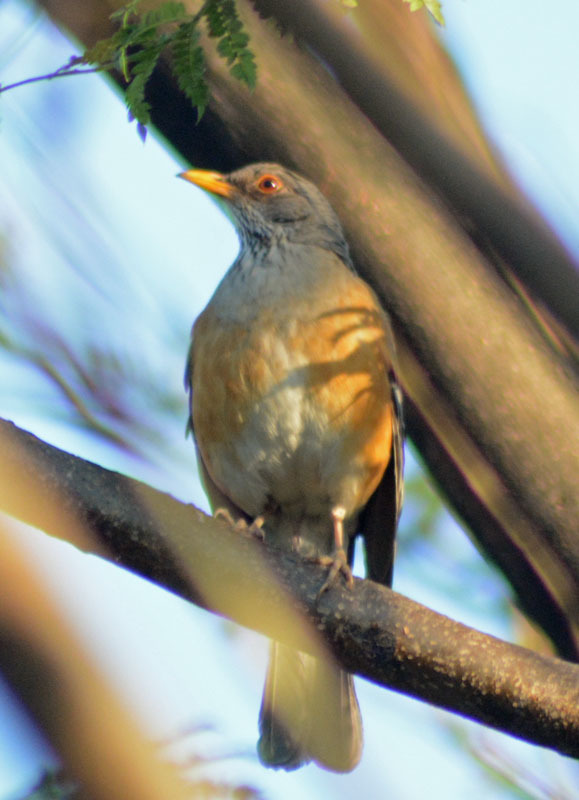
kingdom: Animalia
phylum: Chordata
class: Aves
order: Passeriformes
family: Turdidae
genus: Turdus
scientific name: Turdus rufopalliatus
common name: Rufous-backed robin
